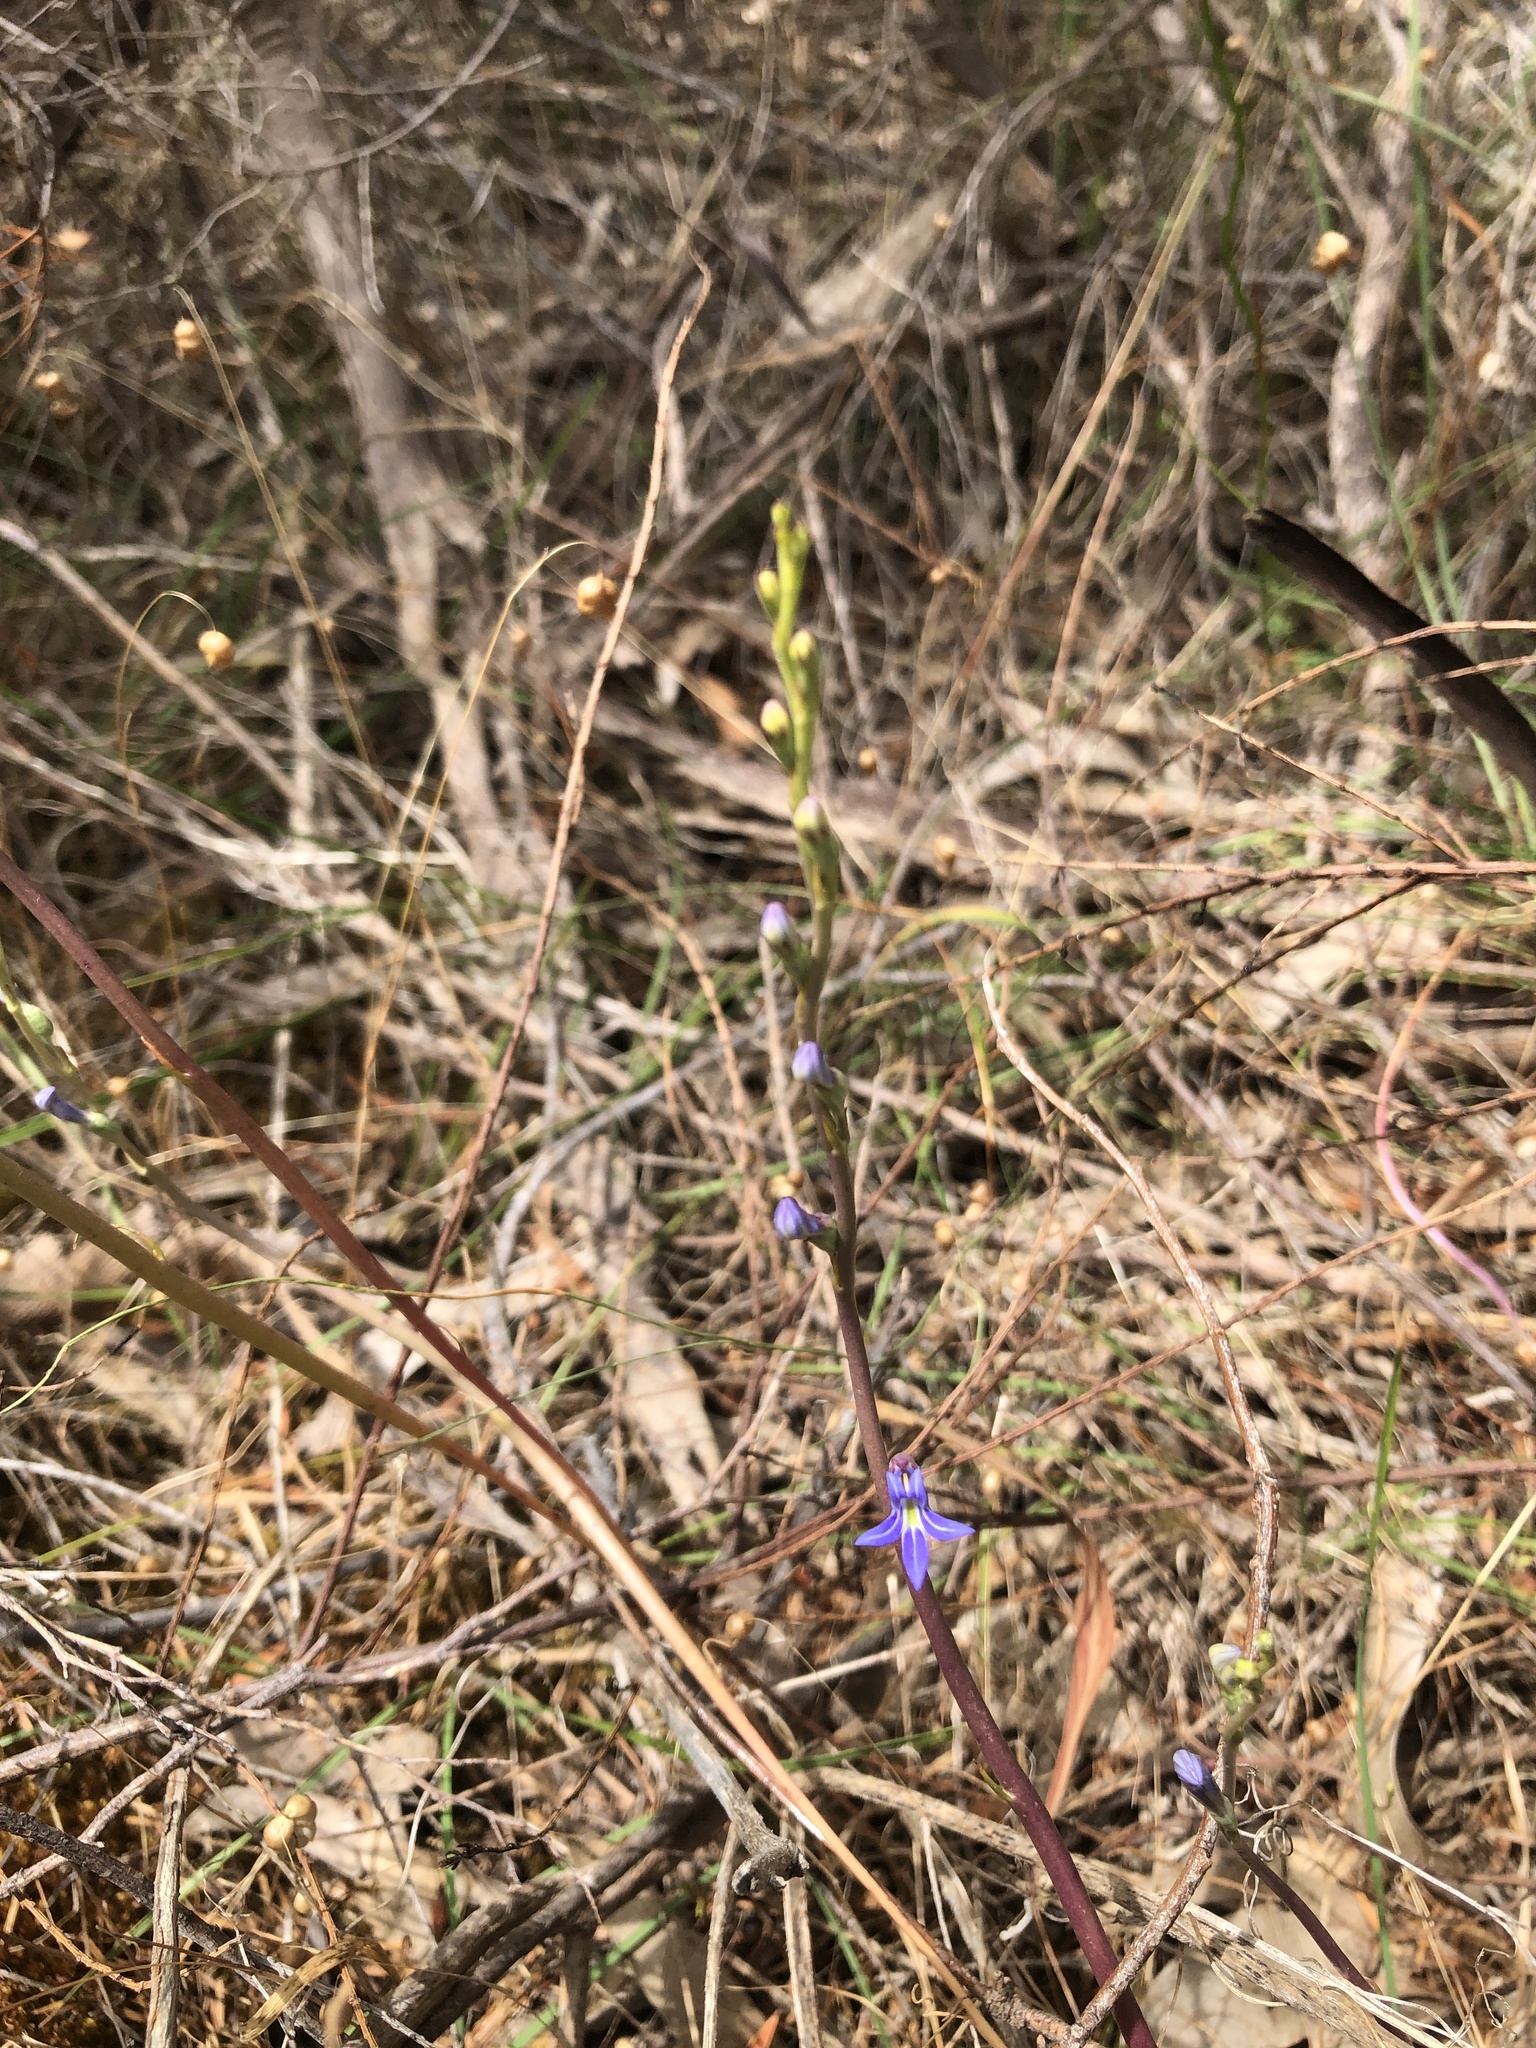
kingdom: Plantae
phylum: Tracheophyta
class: Magnoliopsida
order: Asterales
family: Campanulaceae
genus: Lobelia
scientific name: Lobelia gibbosa
